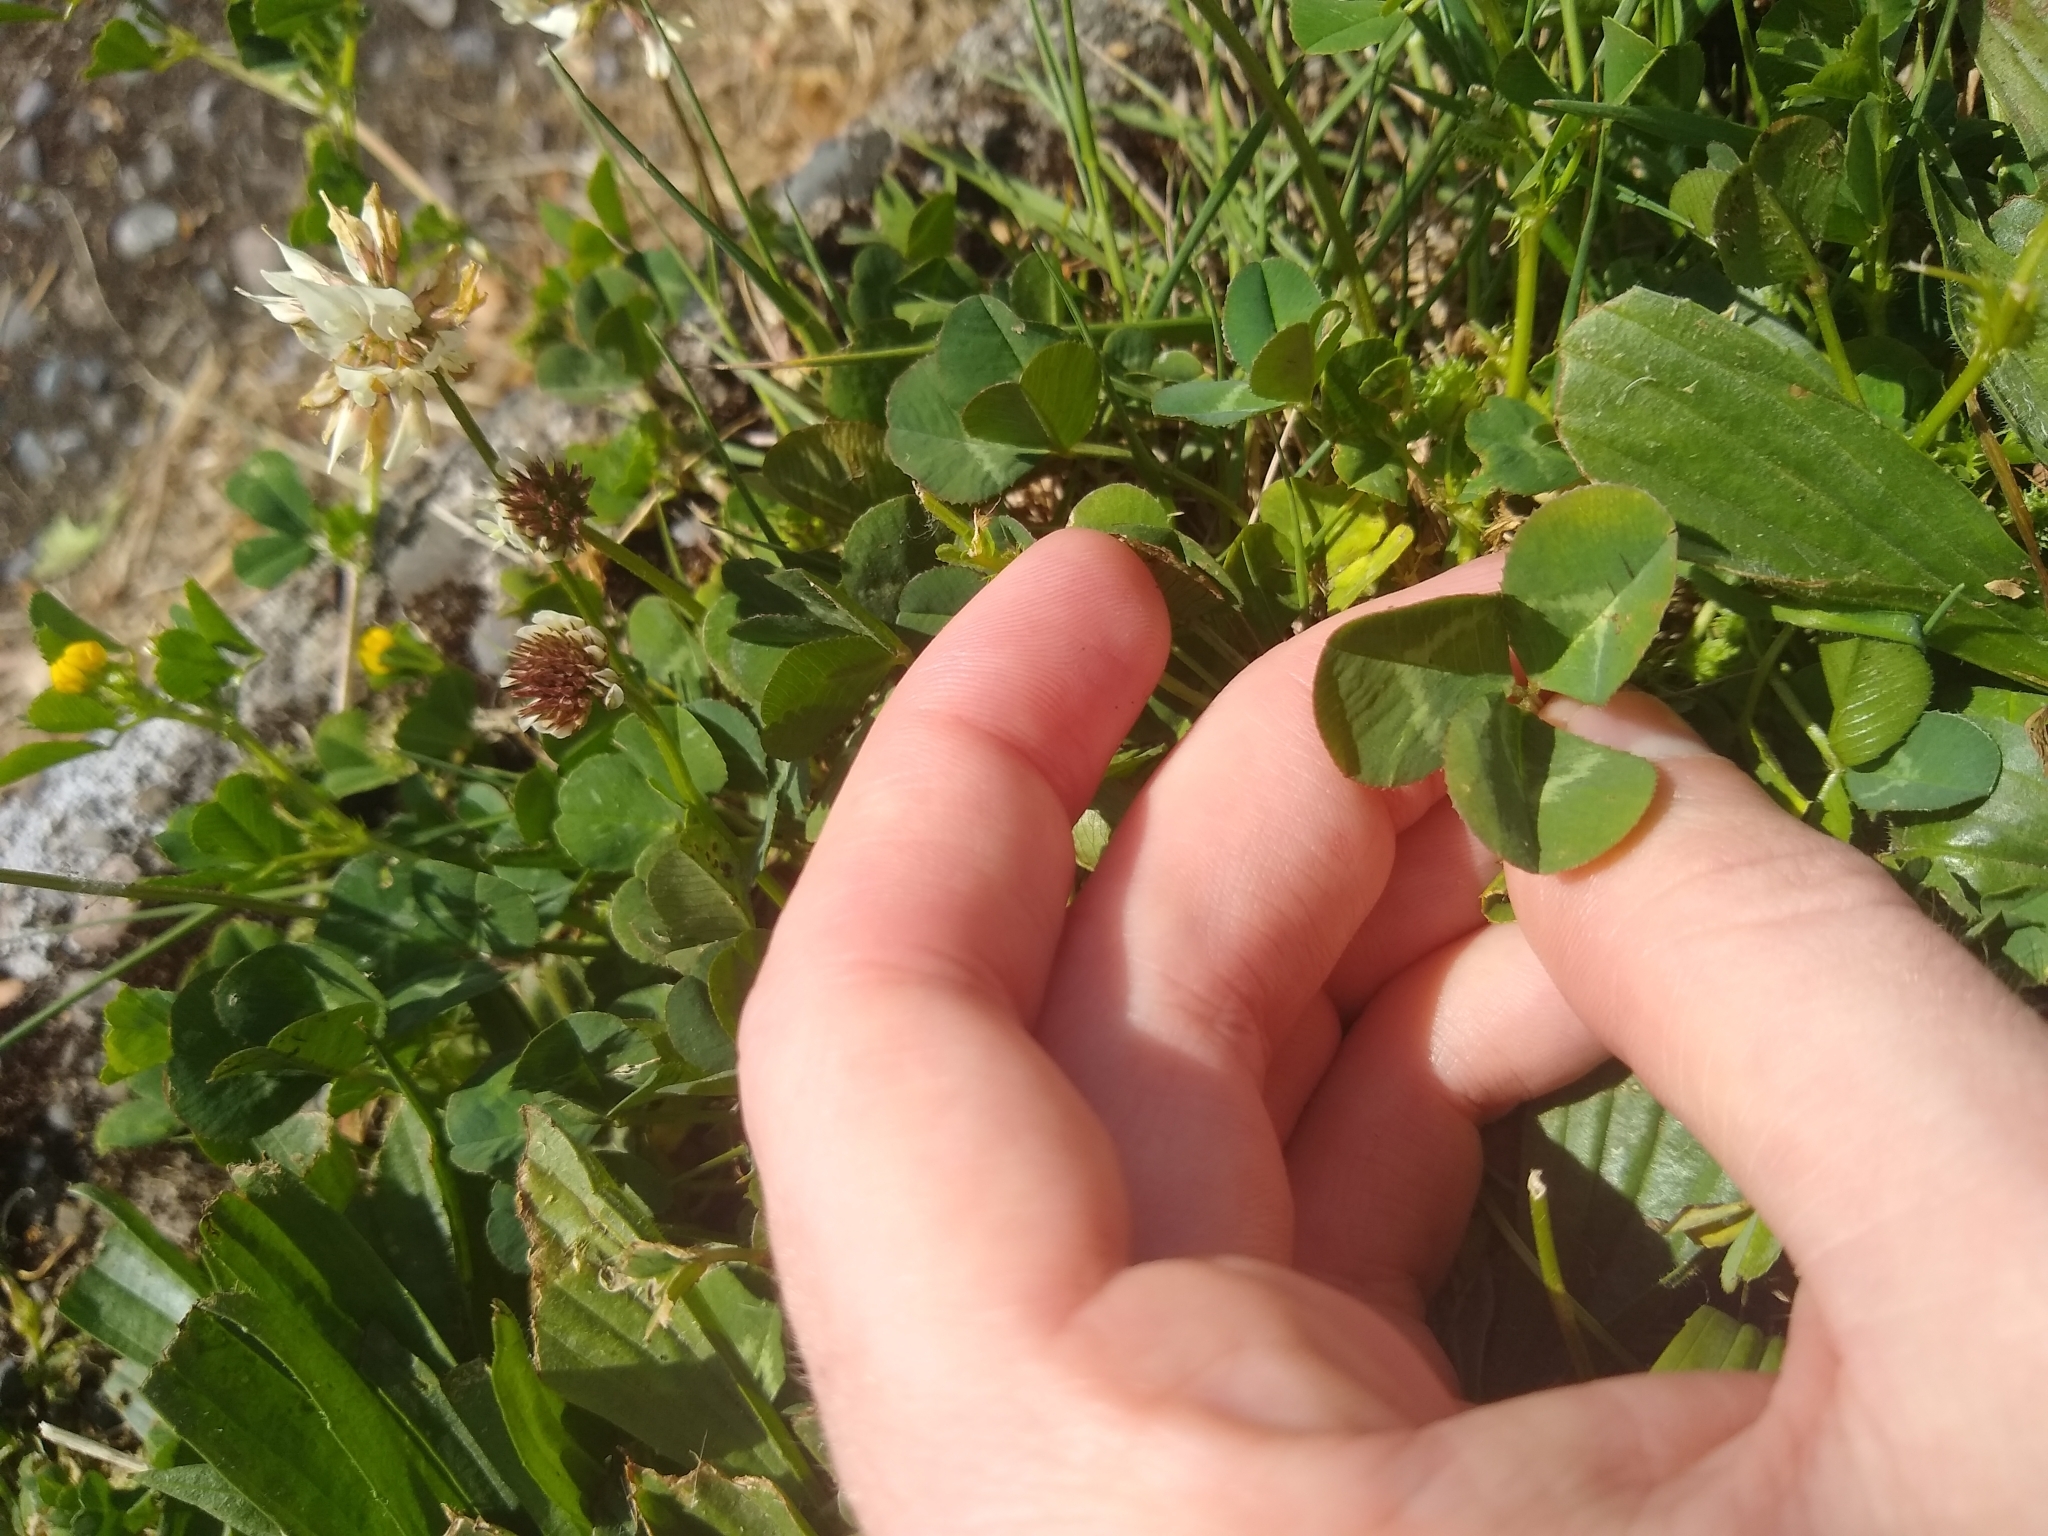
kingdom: Plantae
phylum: Tracheophyta
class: Magnoliopsida
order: Fabales
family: Fabaceae
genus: Trifolium
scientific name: Trifolium repens
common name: White clover
